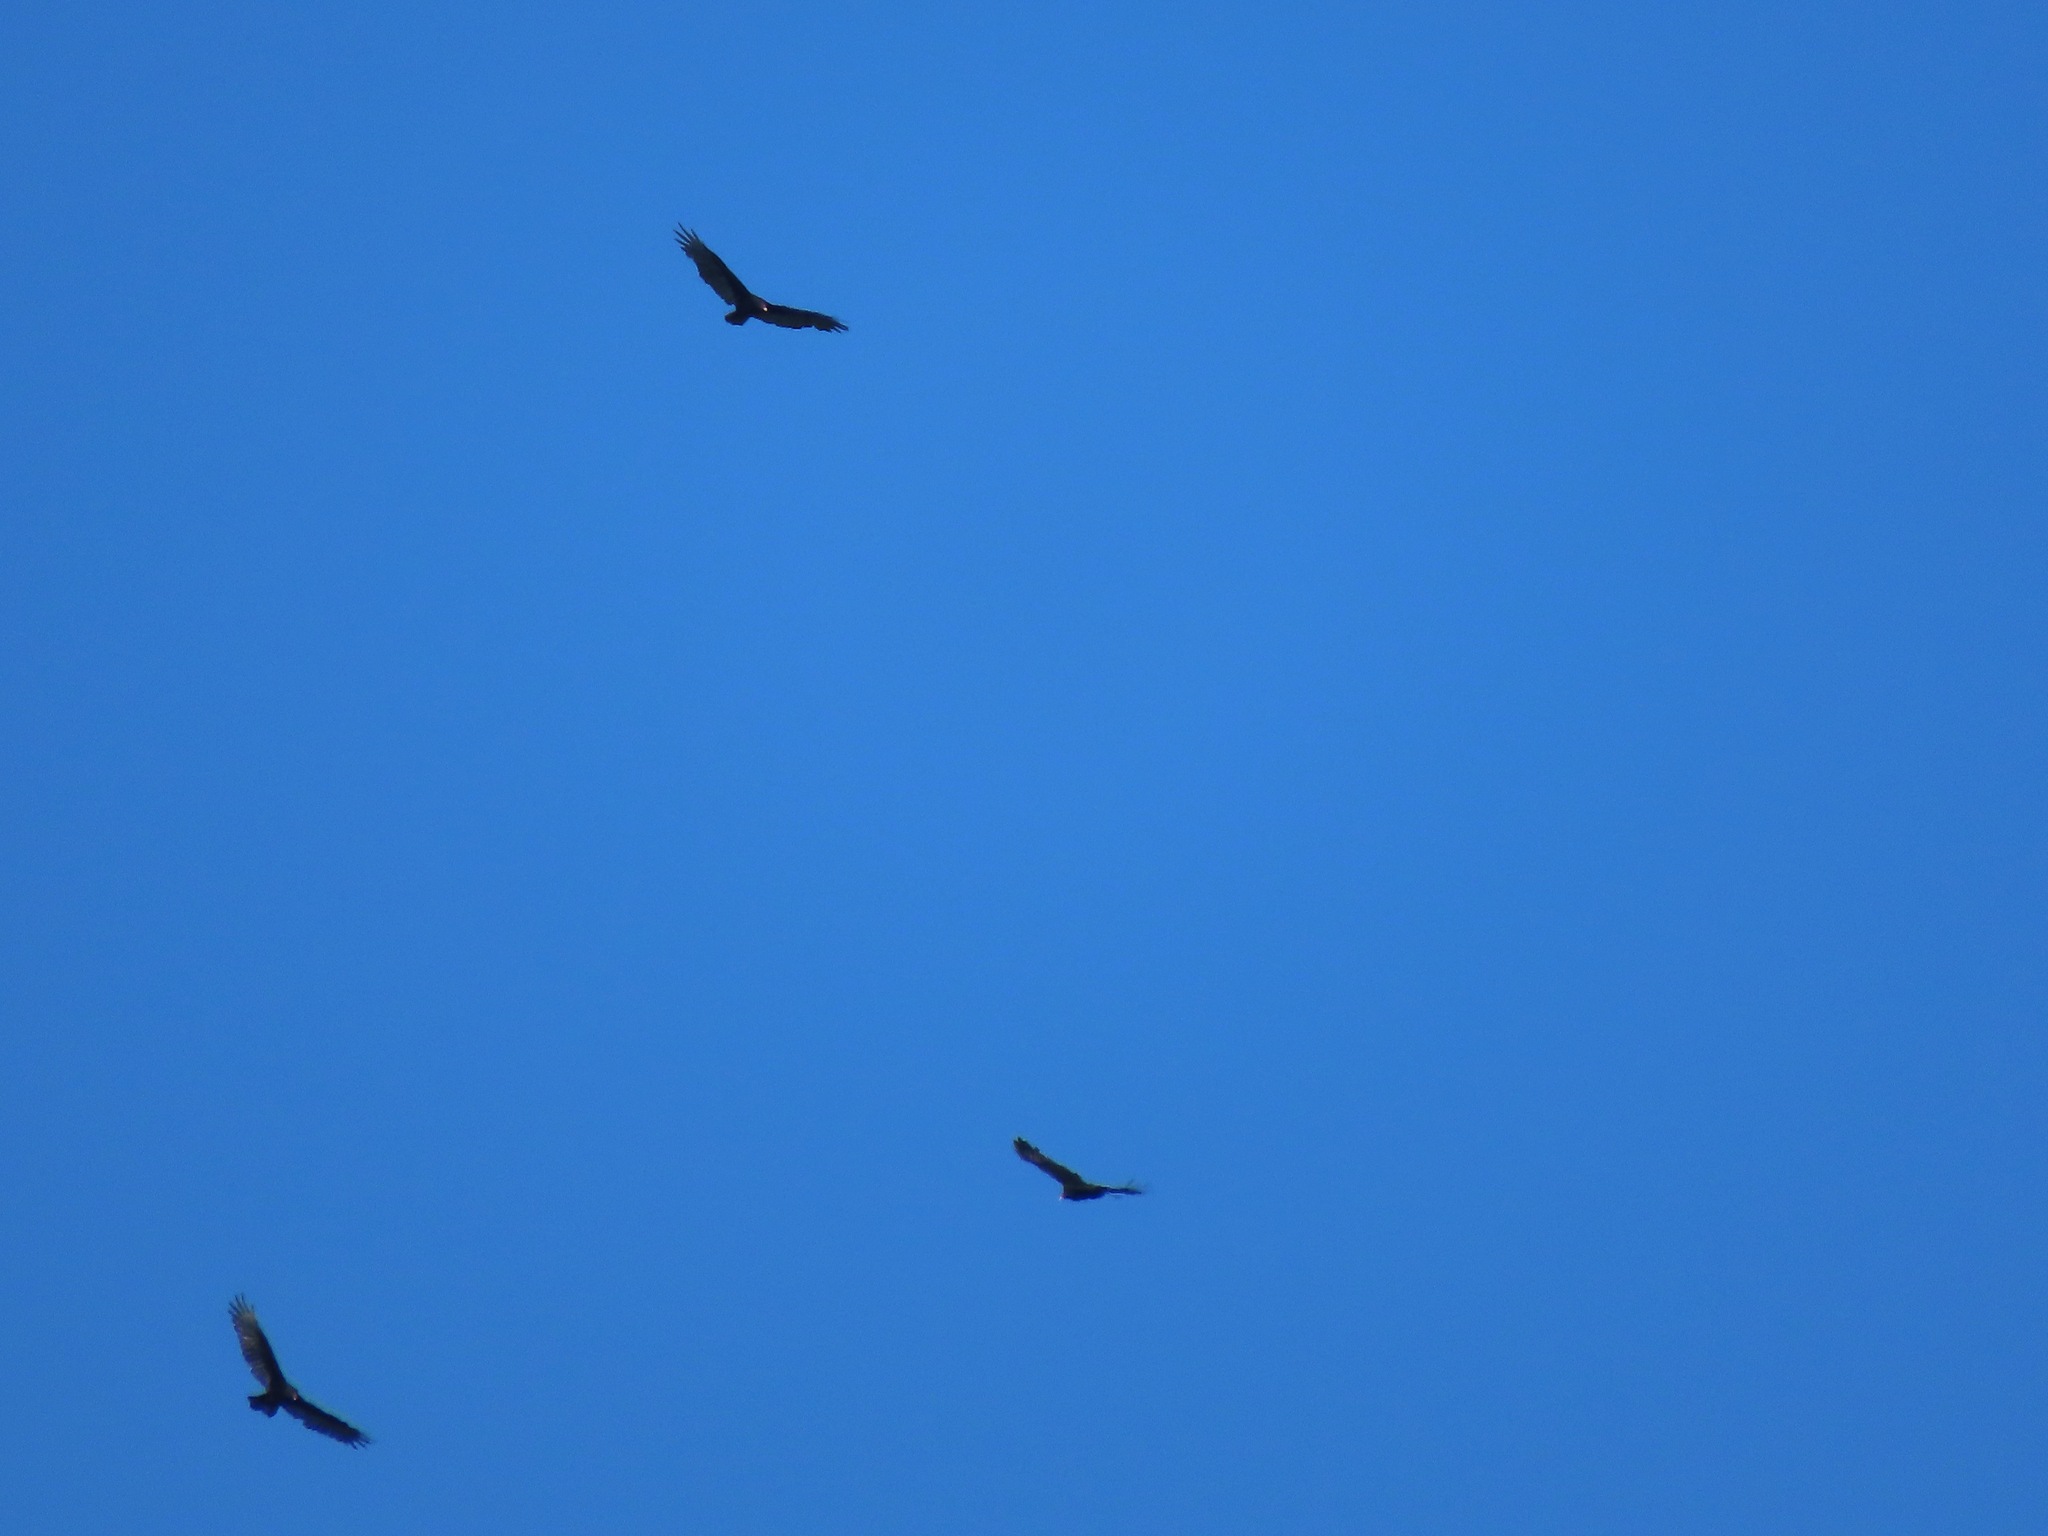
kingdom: Animalia
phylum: Chordata
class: Aves
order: Accipitriformes
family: Cathartidae
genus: Cathartes
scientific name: Cathartes aura
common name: Turkey vulture
